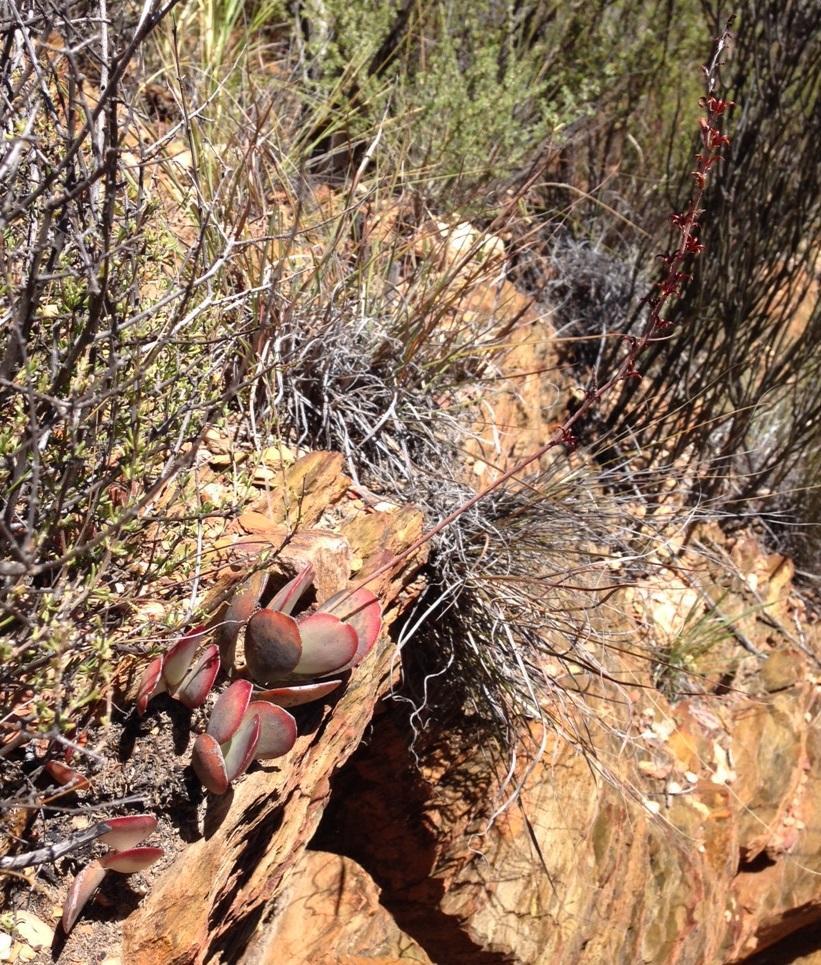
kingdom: Plantae
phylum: Tracheophyta
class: Magnoliopsida
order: Saxifragales
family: Crassulaceae
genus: Adromischus
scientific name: Adromischus sphenophyllus
